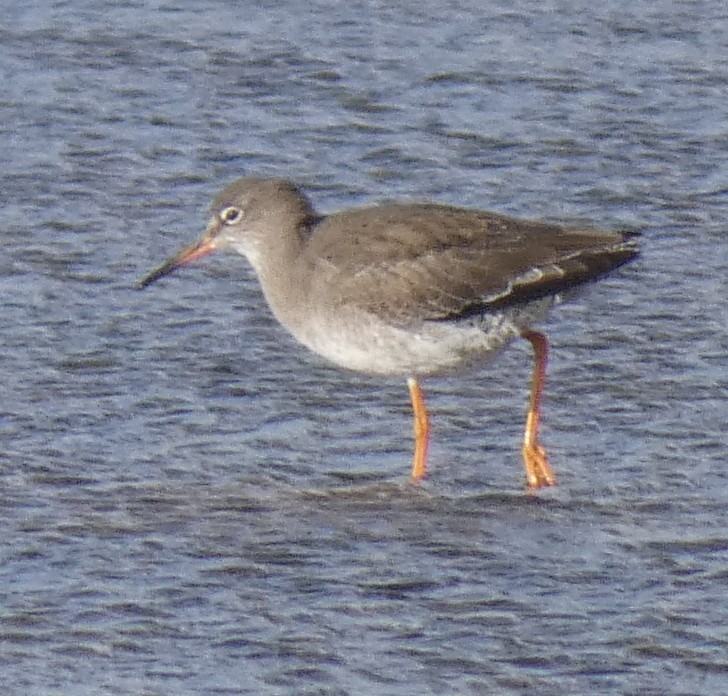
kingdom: Animalia
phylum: Chordata
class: Aves
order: Charadriiformes
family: Scolopacidae
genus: Tringa
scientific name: Tringa totanus
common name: Common redshank
